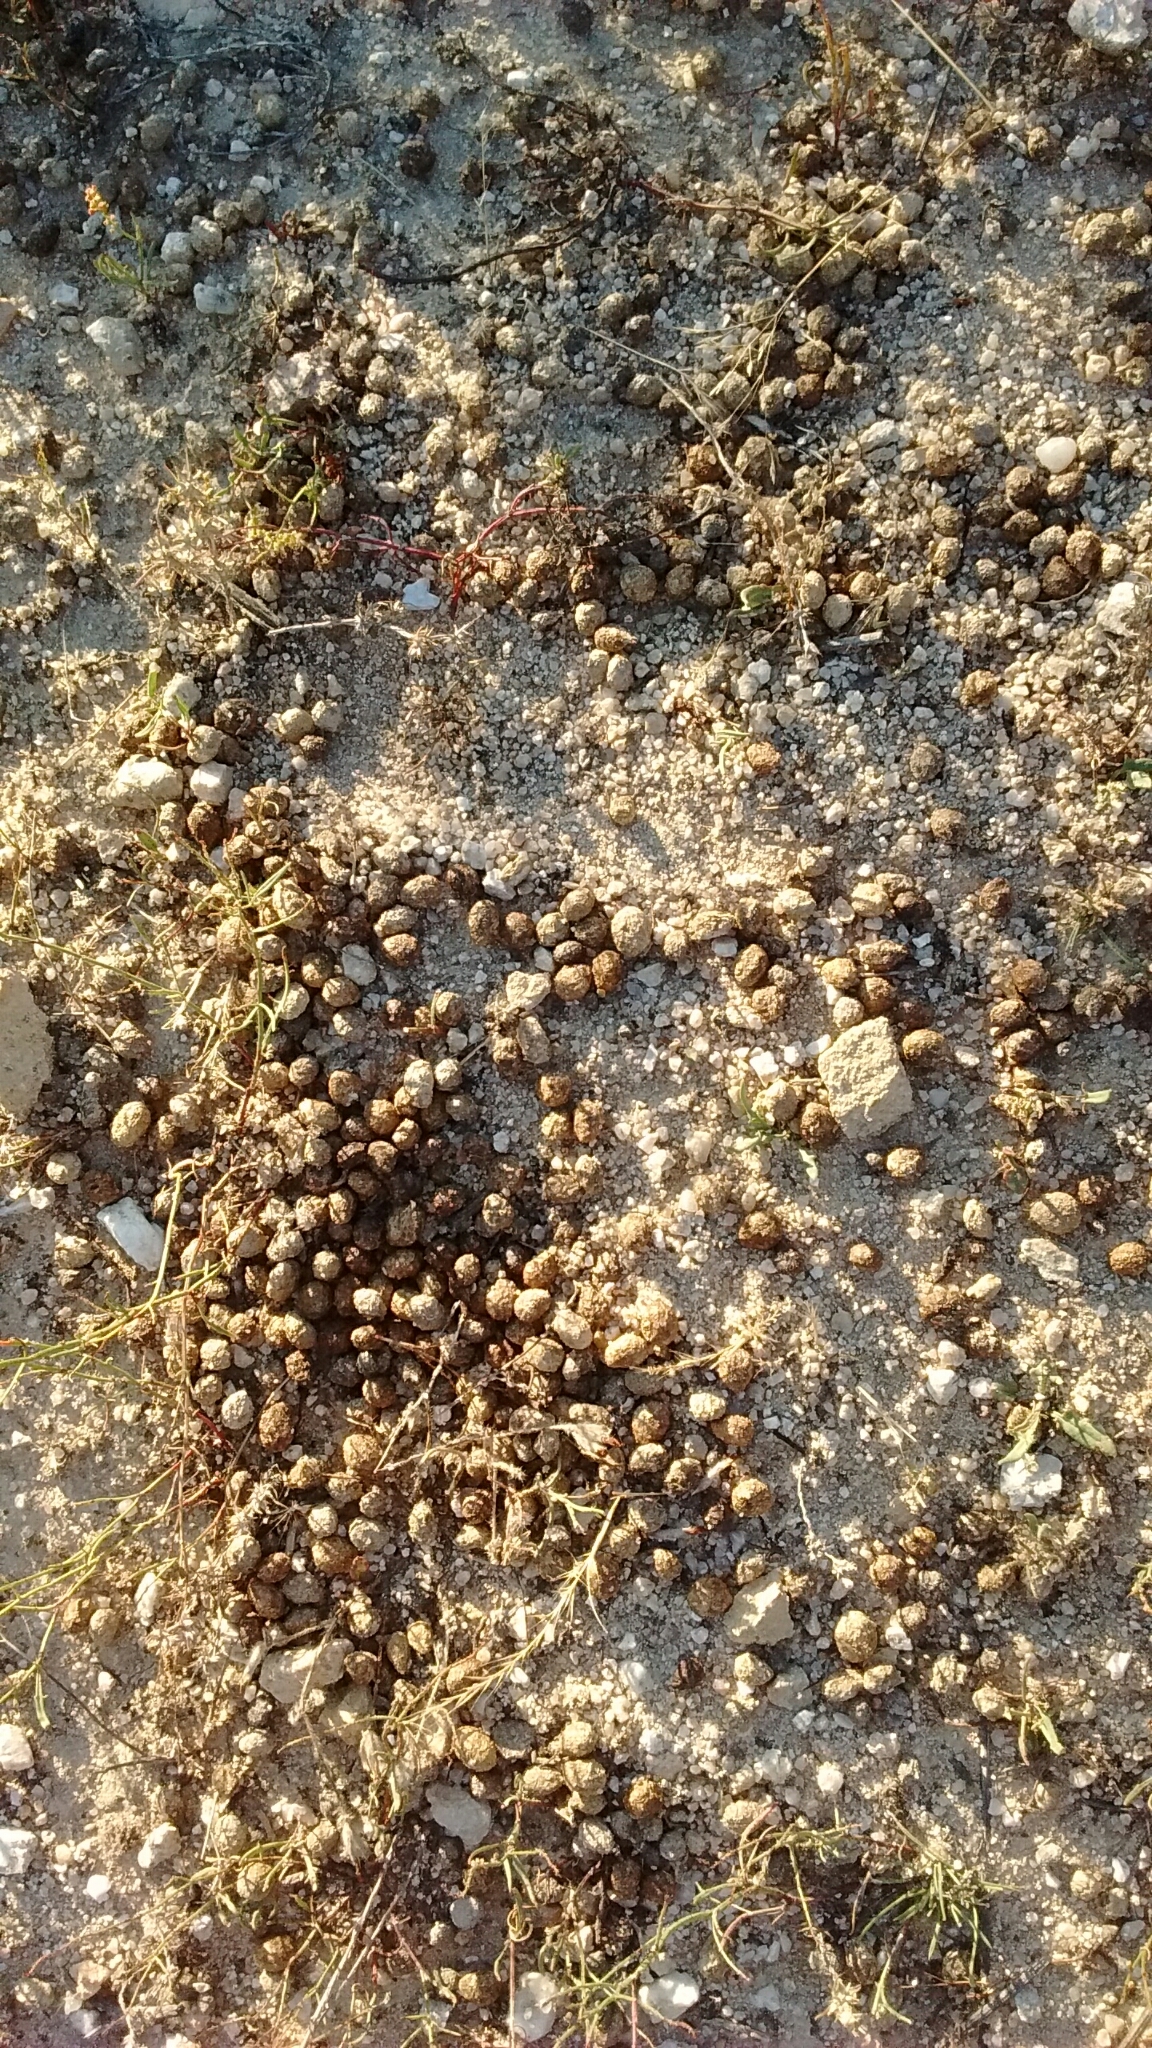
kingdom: Animalia
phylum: Chordata
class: Mammalia
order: Lagomorpha
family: Leporidae
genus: Oryctolagus
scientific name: Oryctolagus cuniculus
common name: European rabbit
